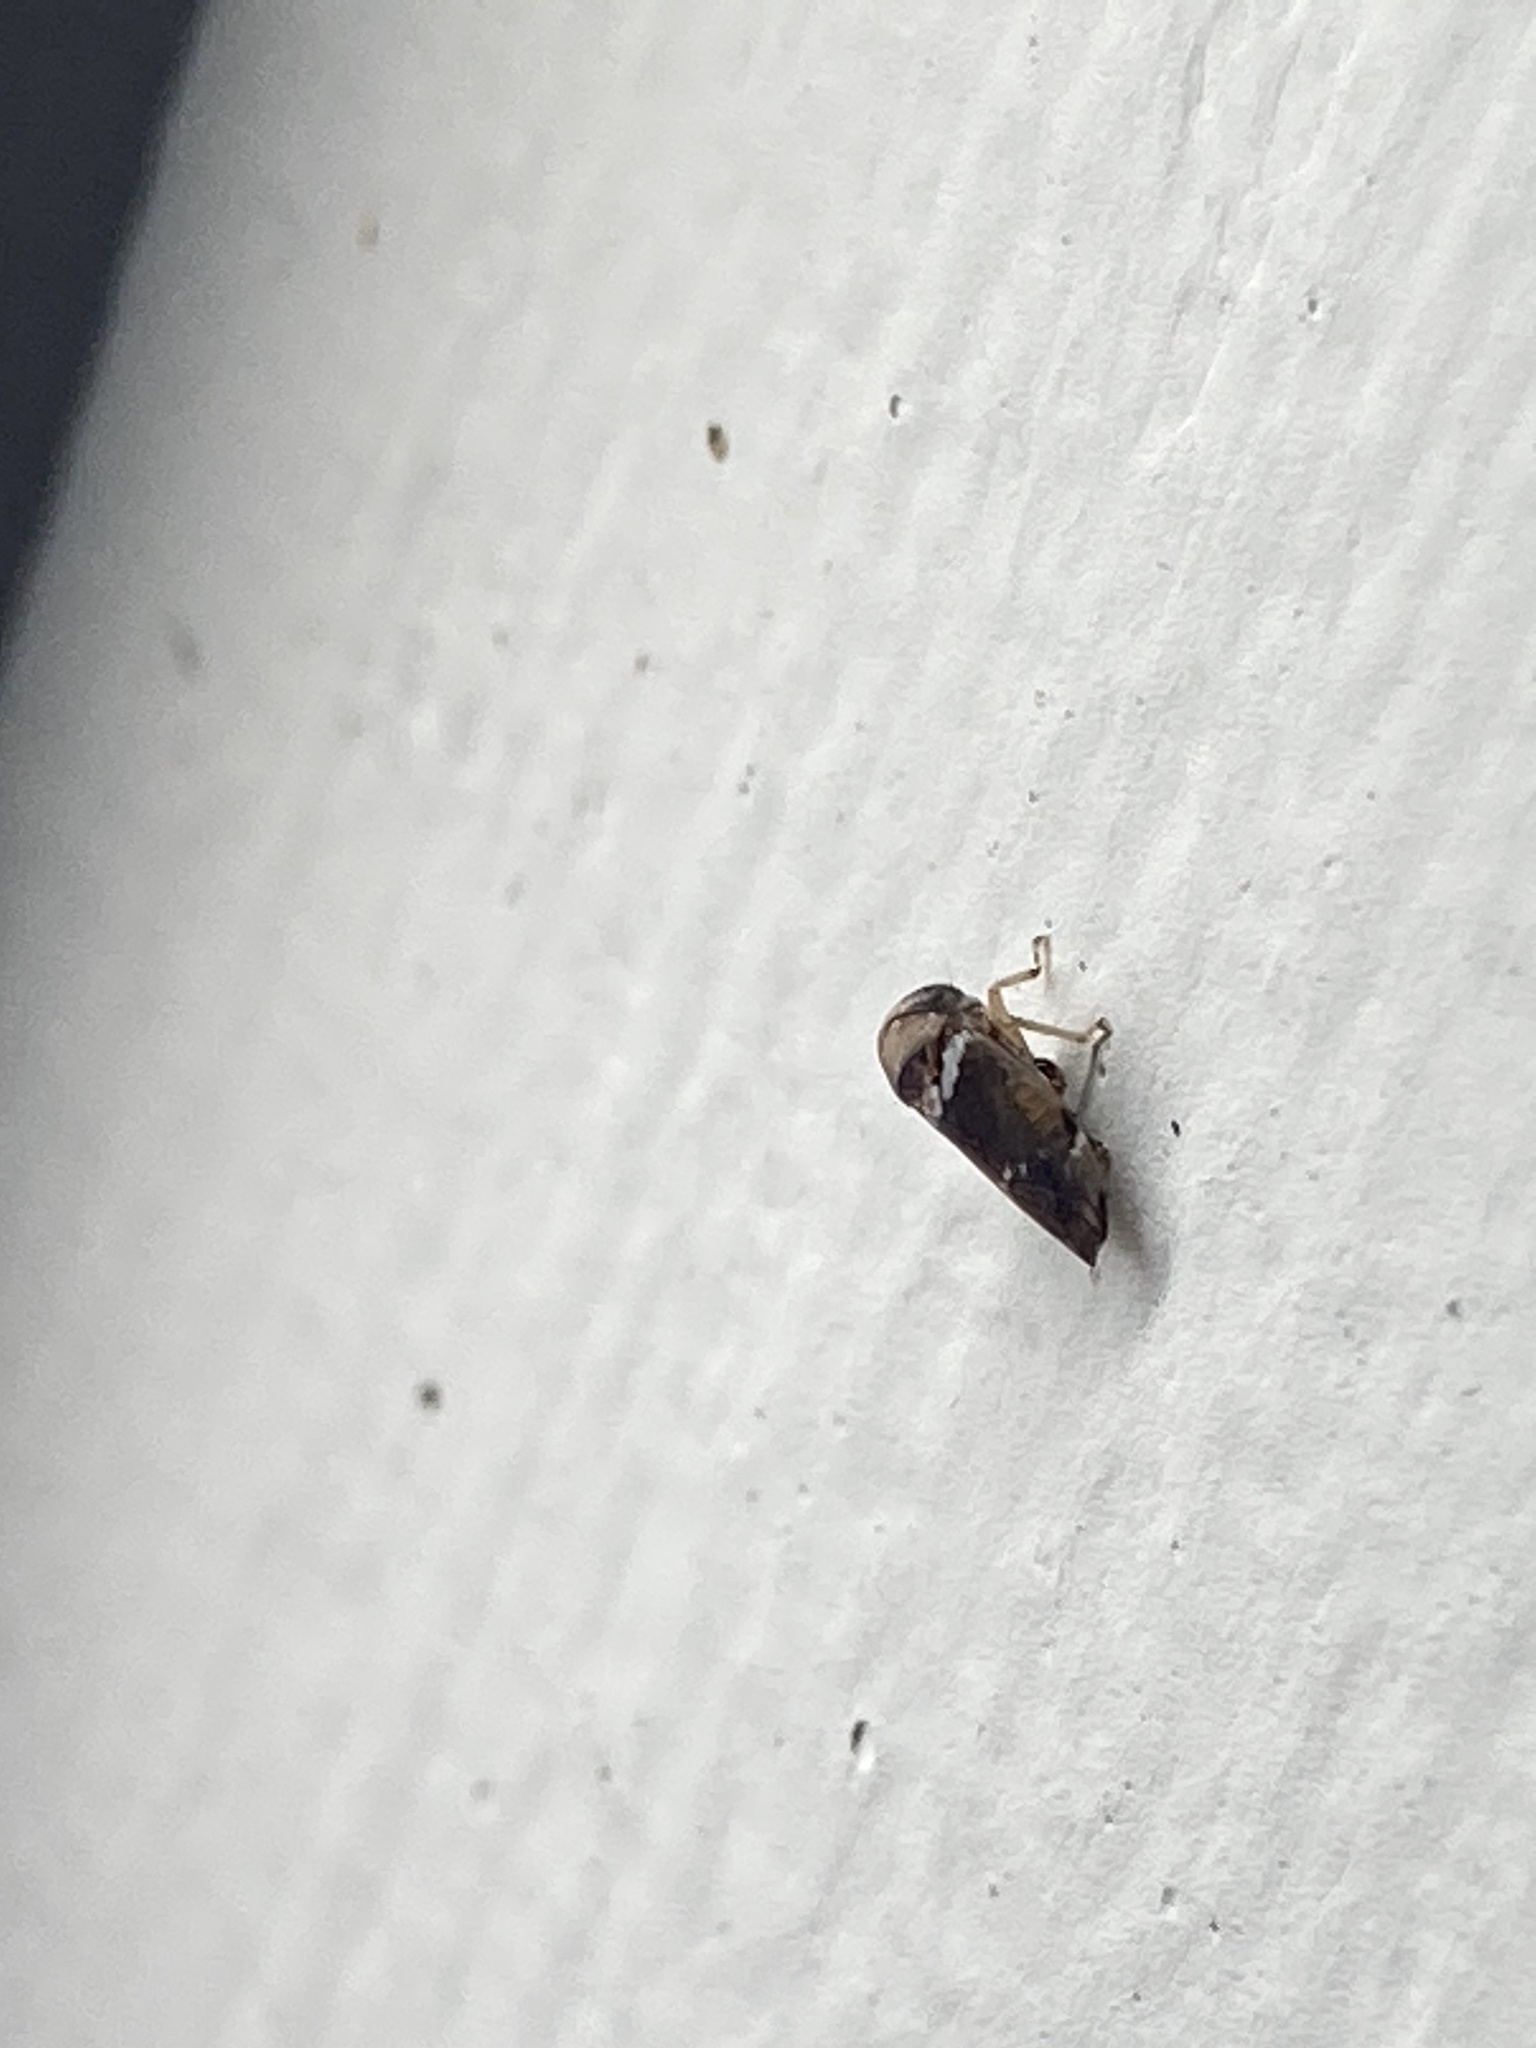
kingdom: Animalia
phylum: Arthropoda
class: Insecta
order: Hemiptera
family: Cicadellidae
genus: Idioscopus
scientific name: Idioscopus nitidulus
